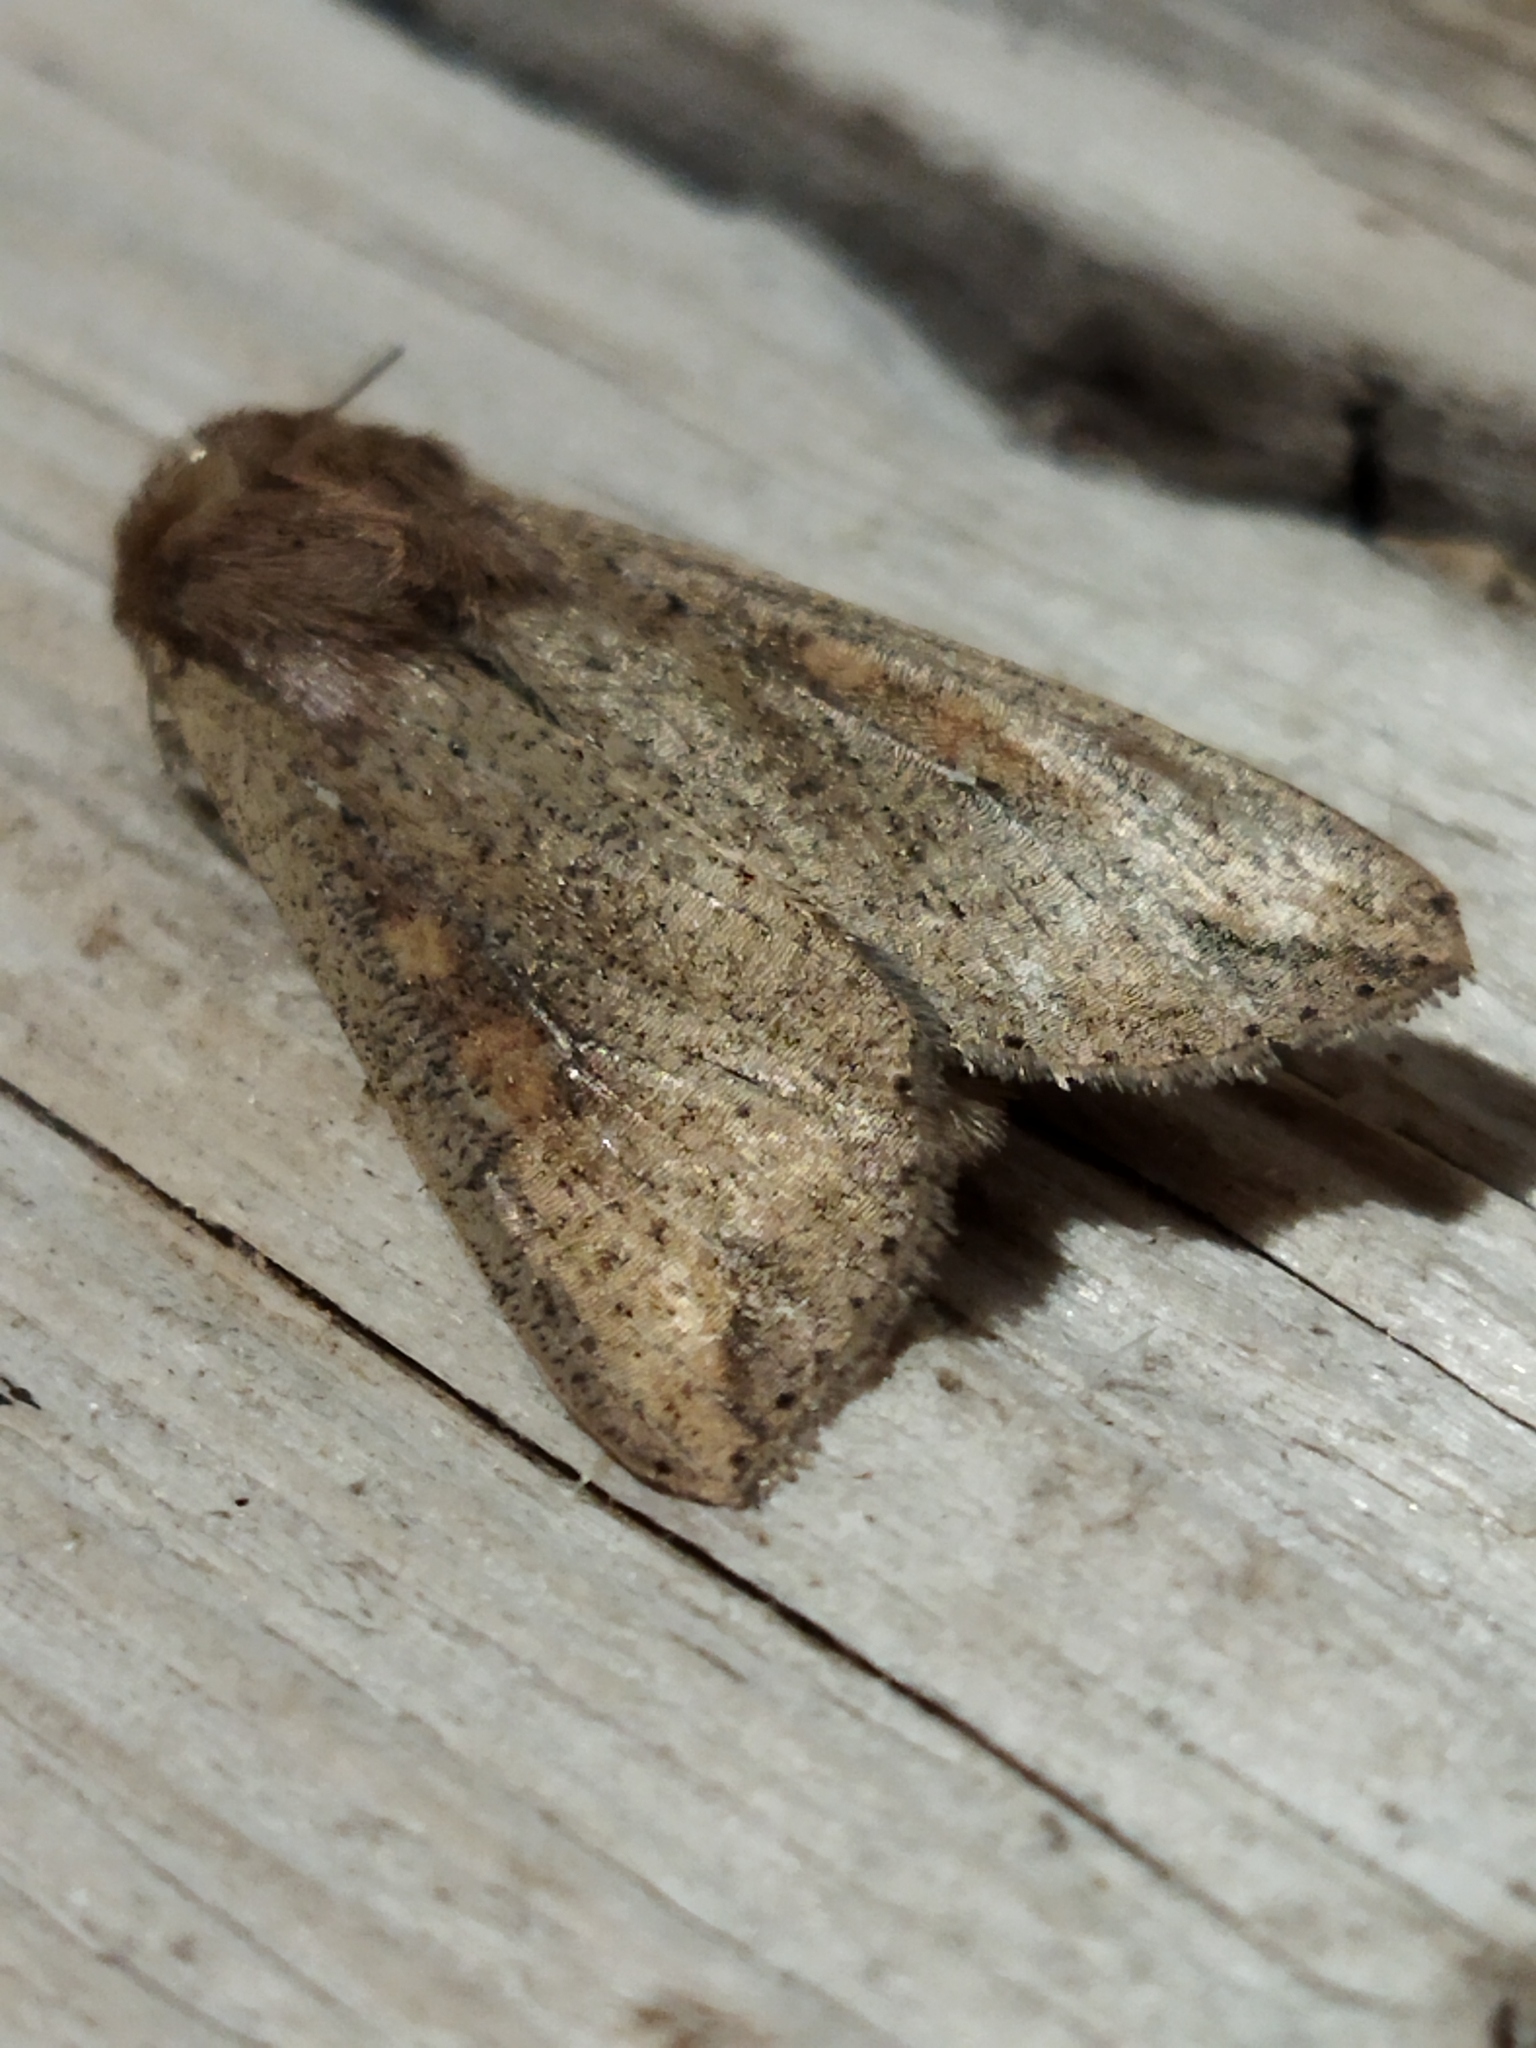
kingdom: Animalia
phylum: Arthropoda
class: Insecta
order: Lepidoptera
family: Noctuidae
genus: Mythimna
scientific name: Mythimna unipuncta
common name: White-speck
